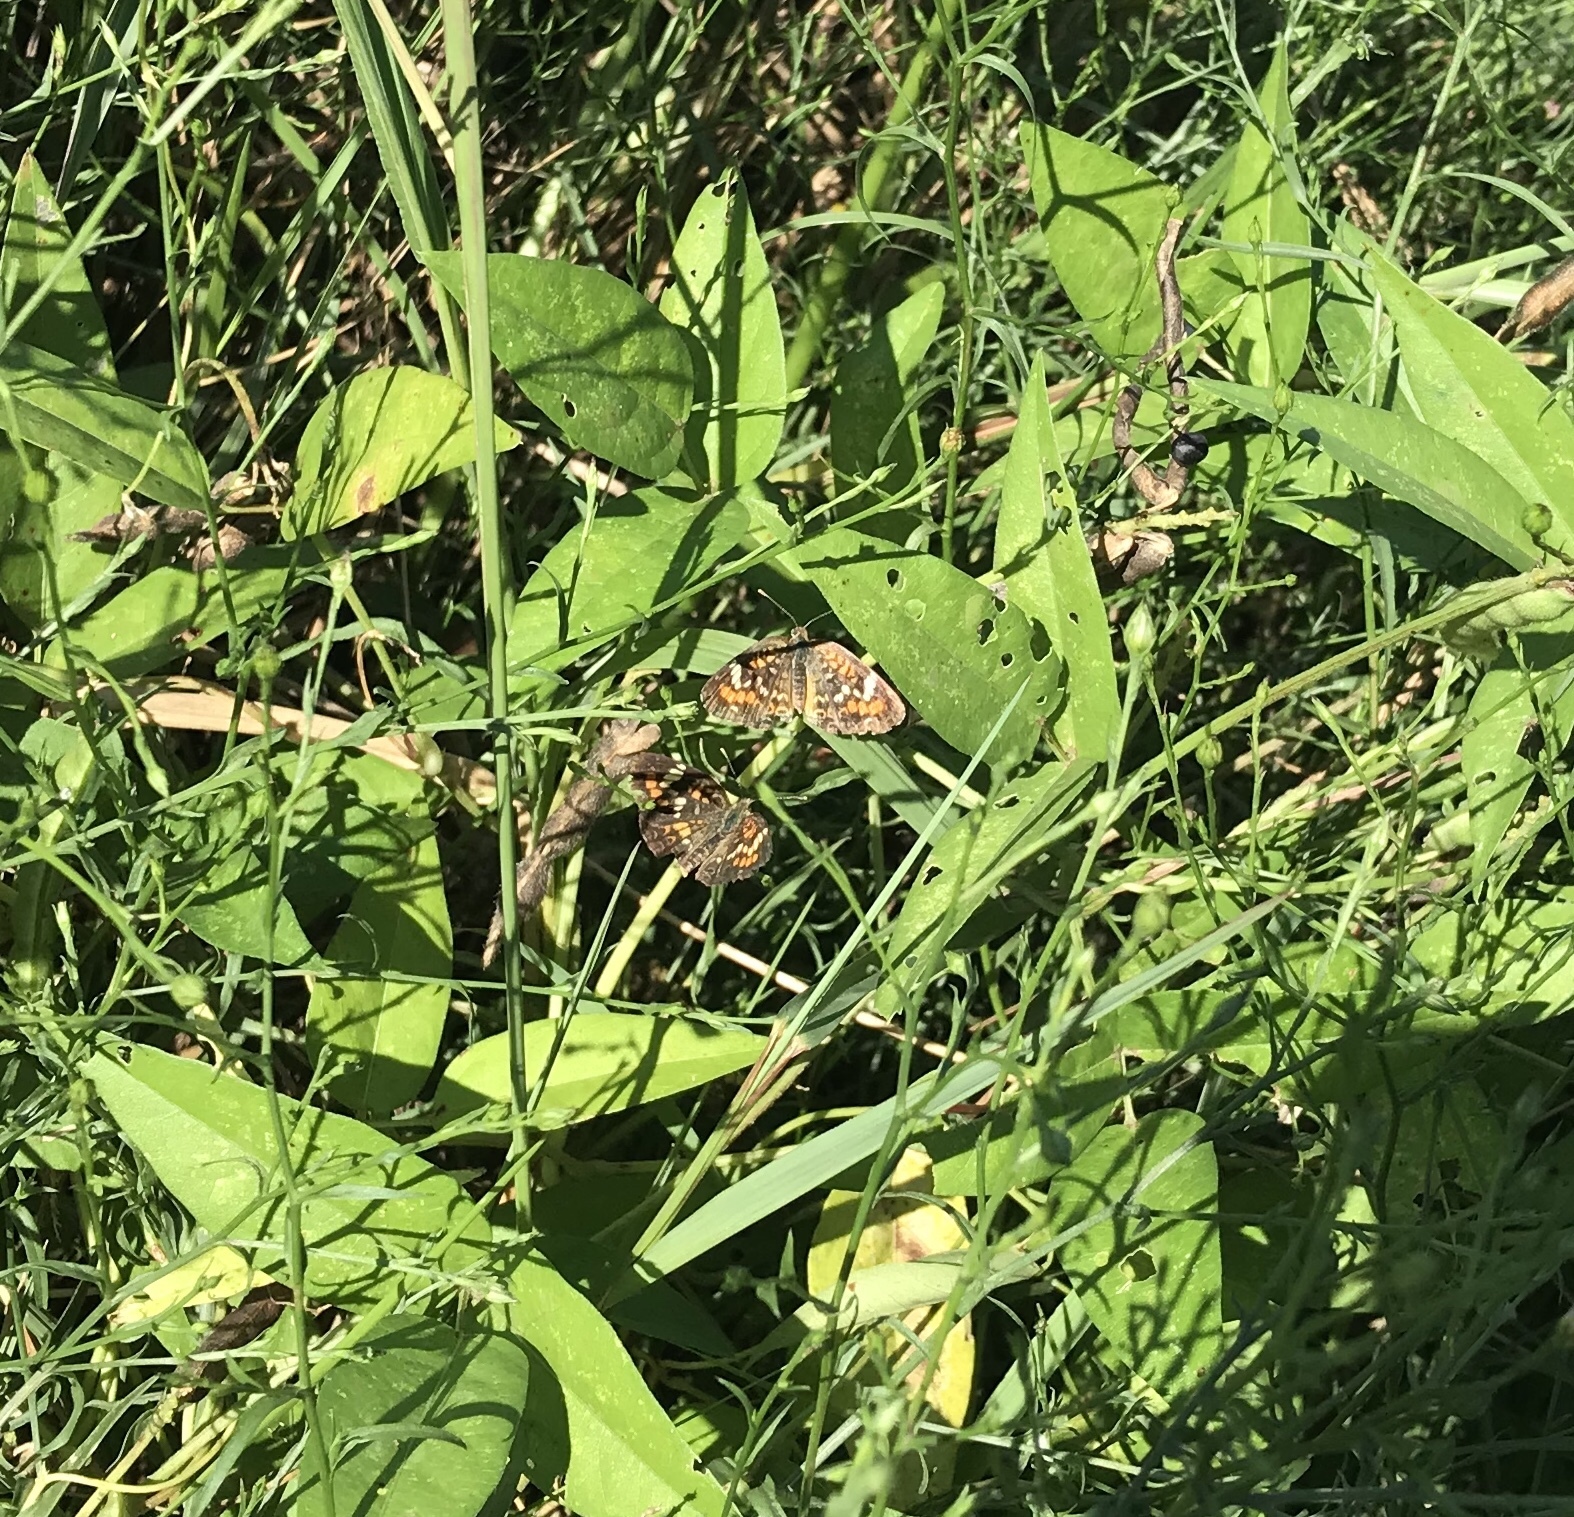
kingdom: Animalia
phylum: Arthropoda
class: Insecta
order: Lepidoptera
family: Nymphalidae
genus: Phyciodes
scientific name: Phyciodes phaon
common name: Phaon crescent
